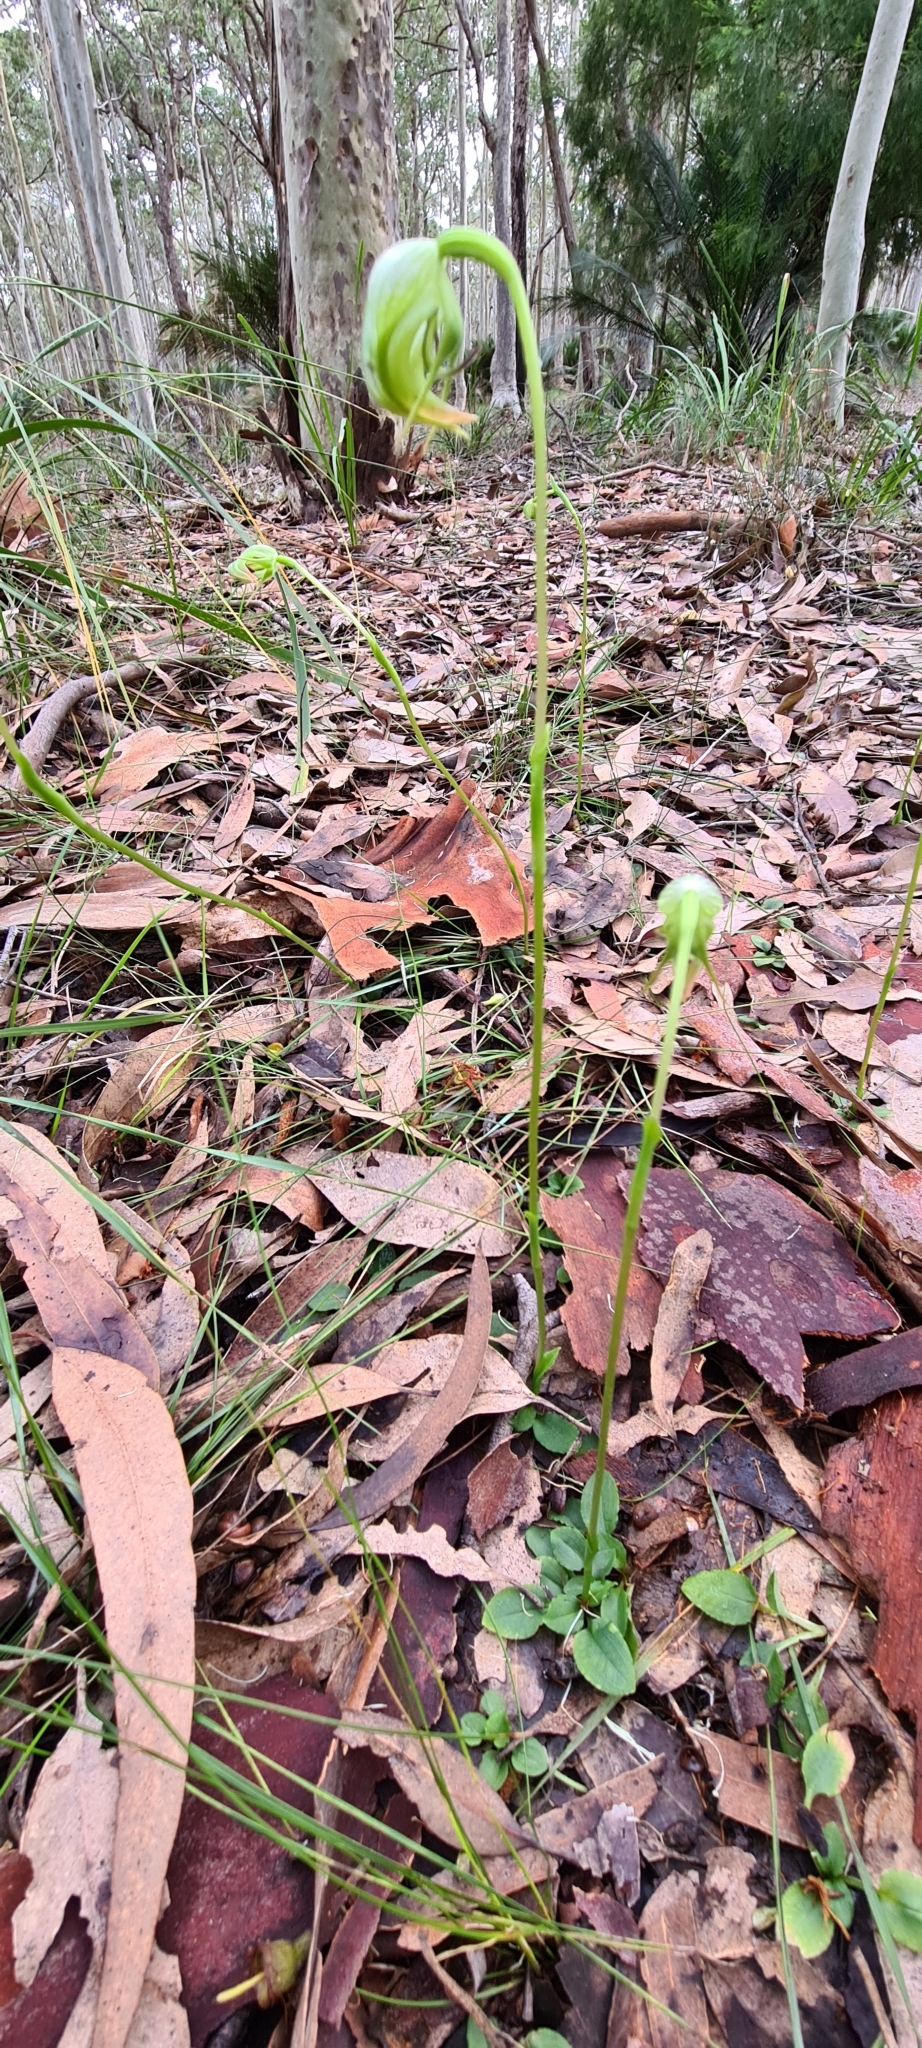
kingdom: Plantae
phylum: Tracheophyta
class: Liliopsida
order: Asparagales
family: Orchidaceae
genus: Pterostylis
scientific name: Pterostylis nutans
